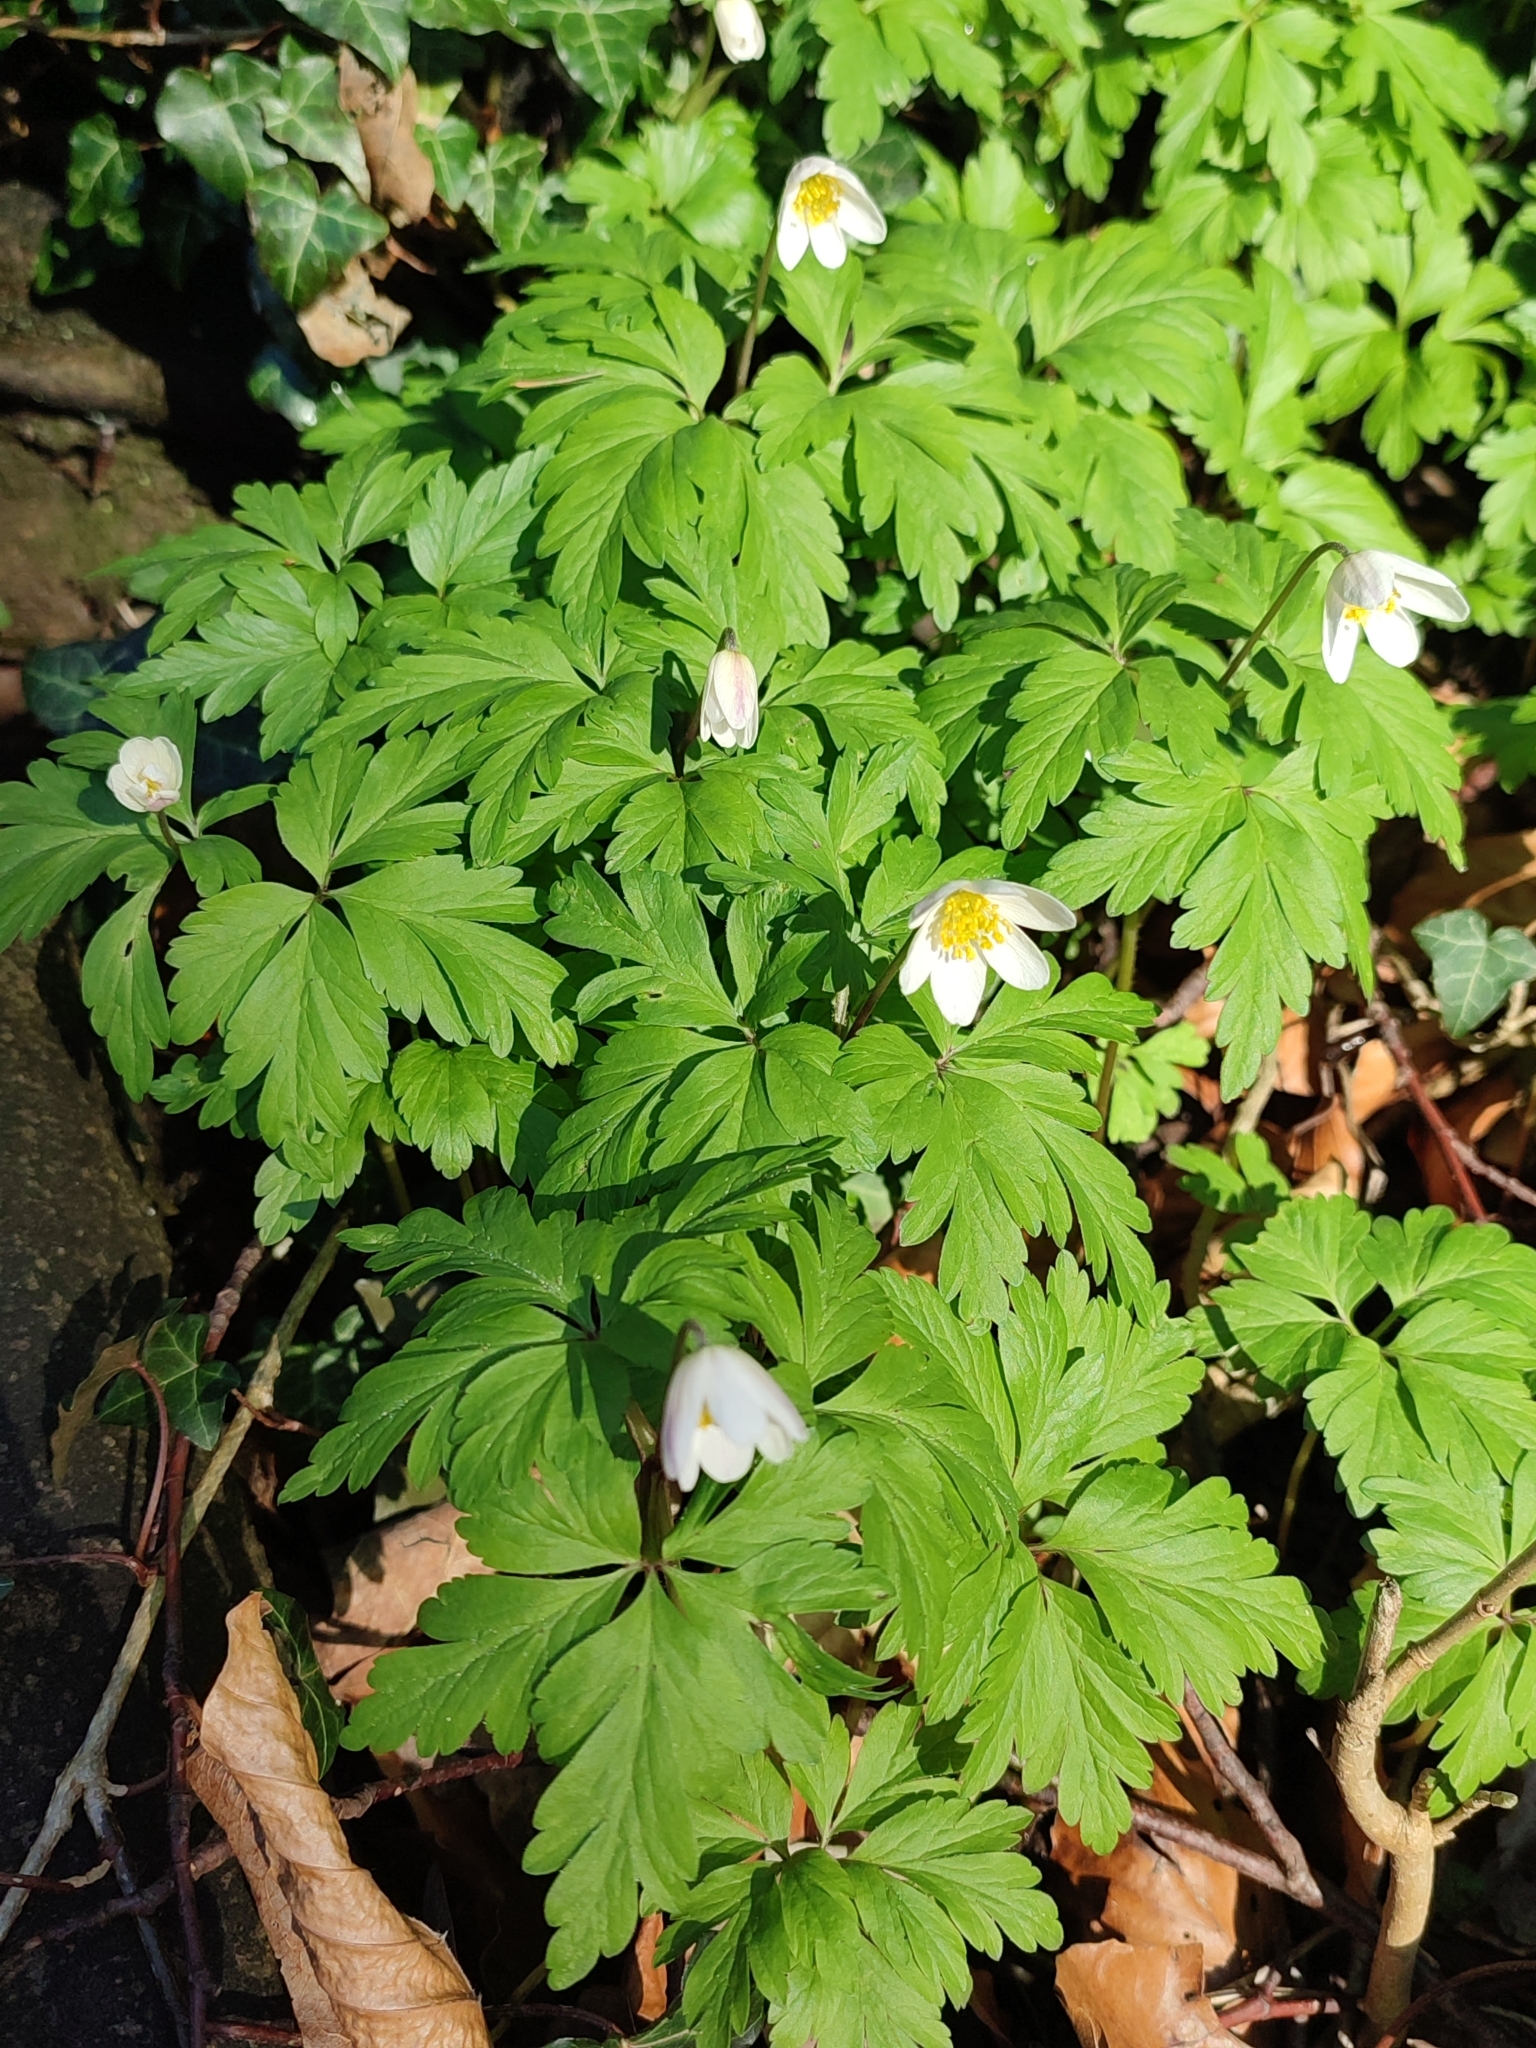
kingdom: Plantae
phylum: Tracheophyta
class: Magnoliopsida
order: Ranunculales
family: Ranunculaceae
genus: Anemone
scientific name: Anemone nemorosa
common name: Wood anemone
